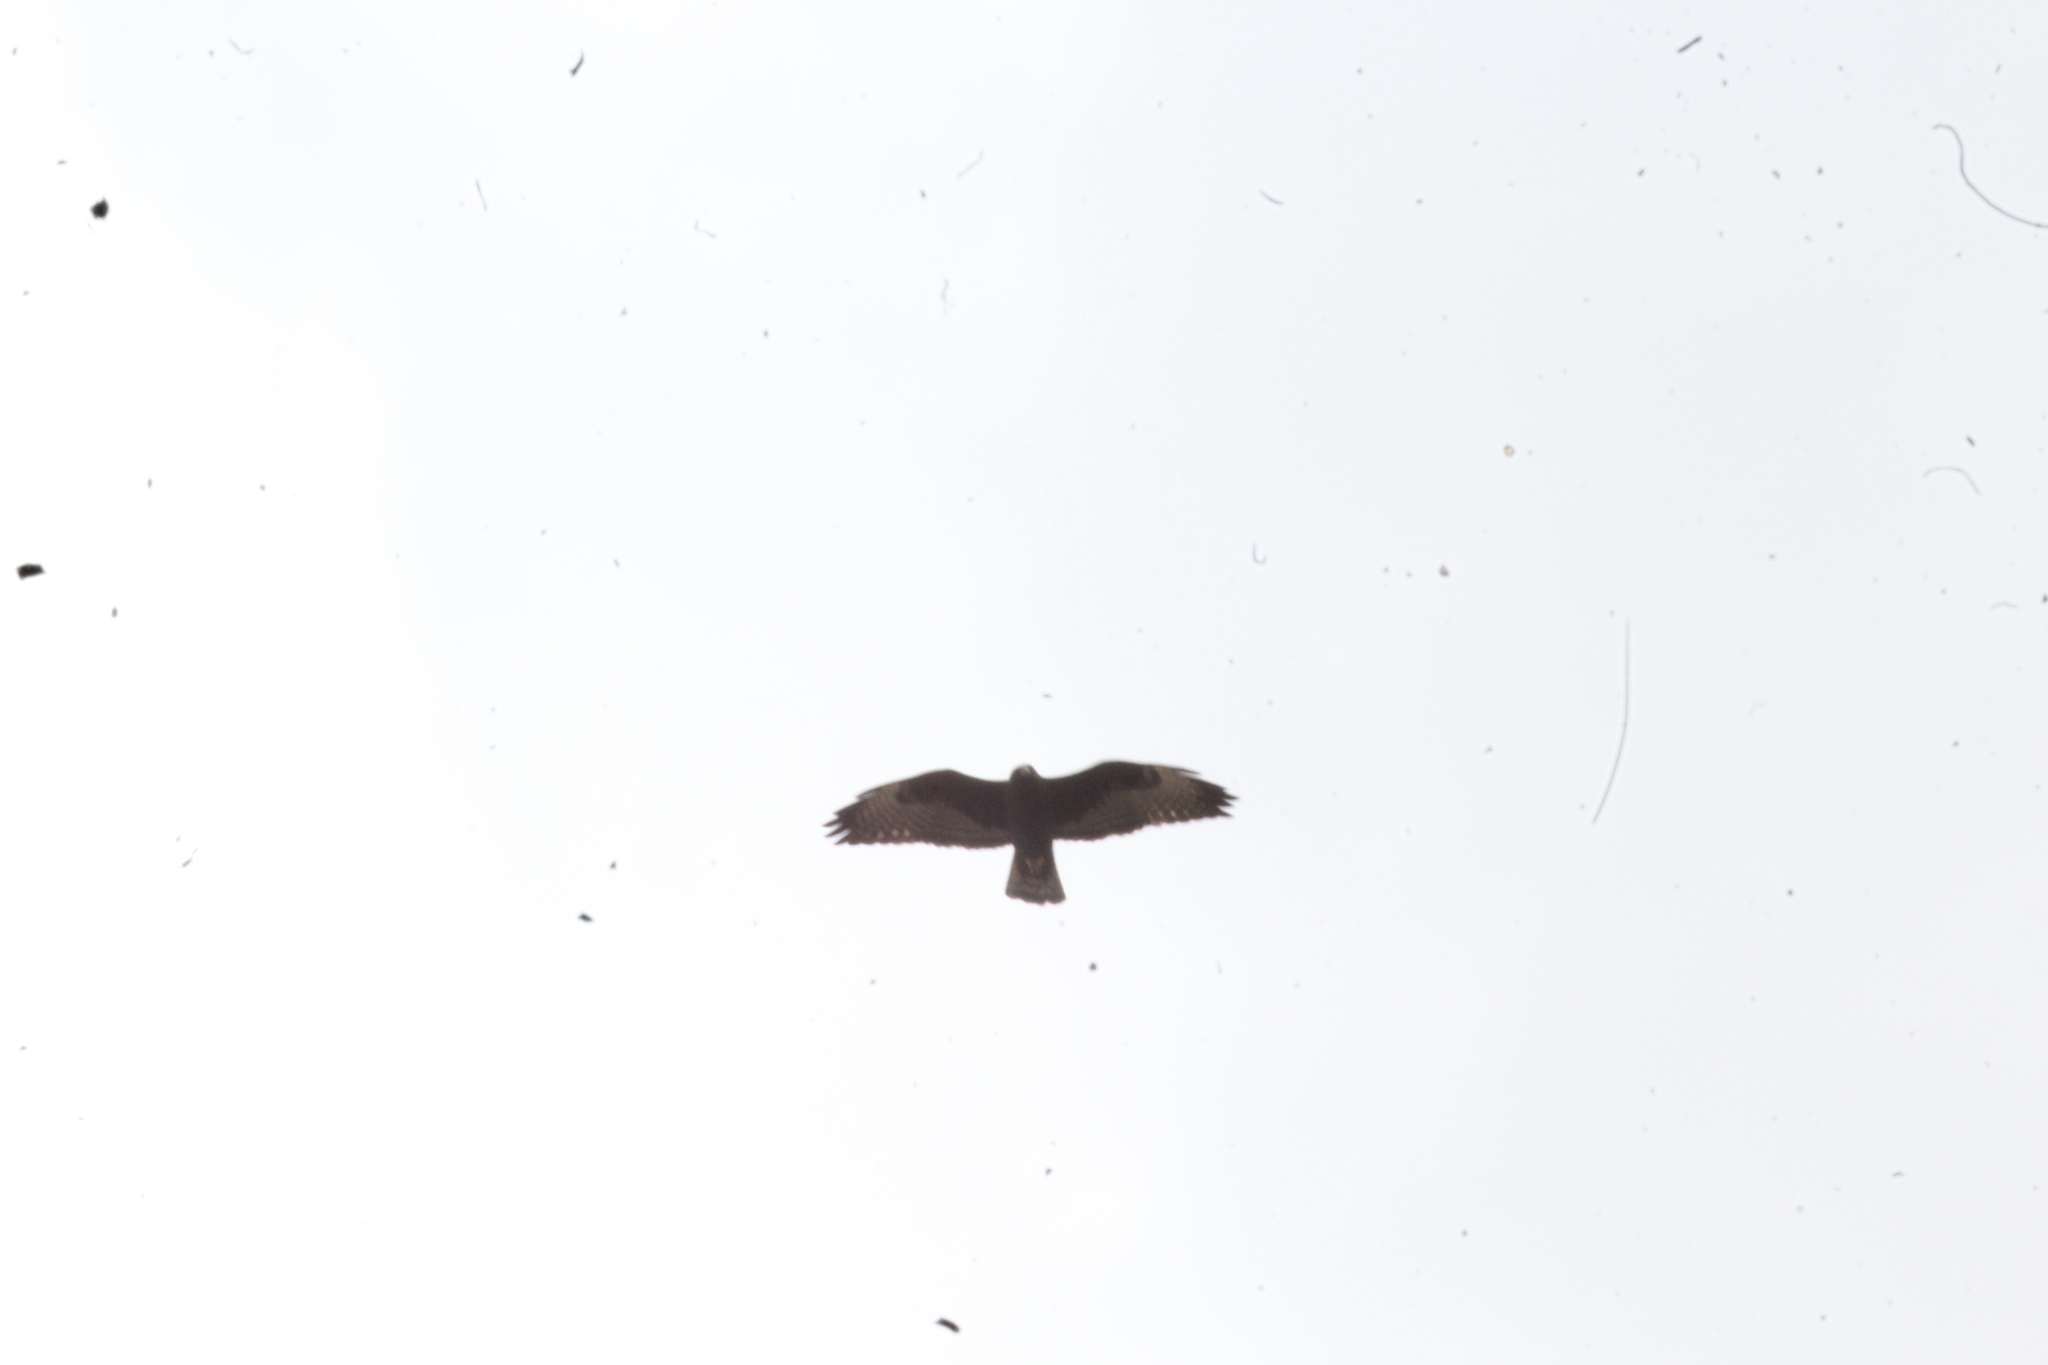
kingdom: Animalia
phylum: Chordata
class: Aves
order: Accipitriformes
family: Accipitridae
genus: Buteo
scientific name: Buteo brachyurus
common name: Short-tailed hawk
